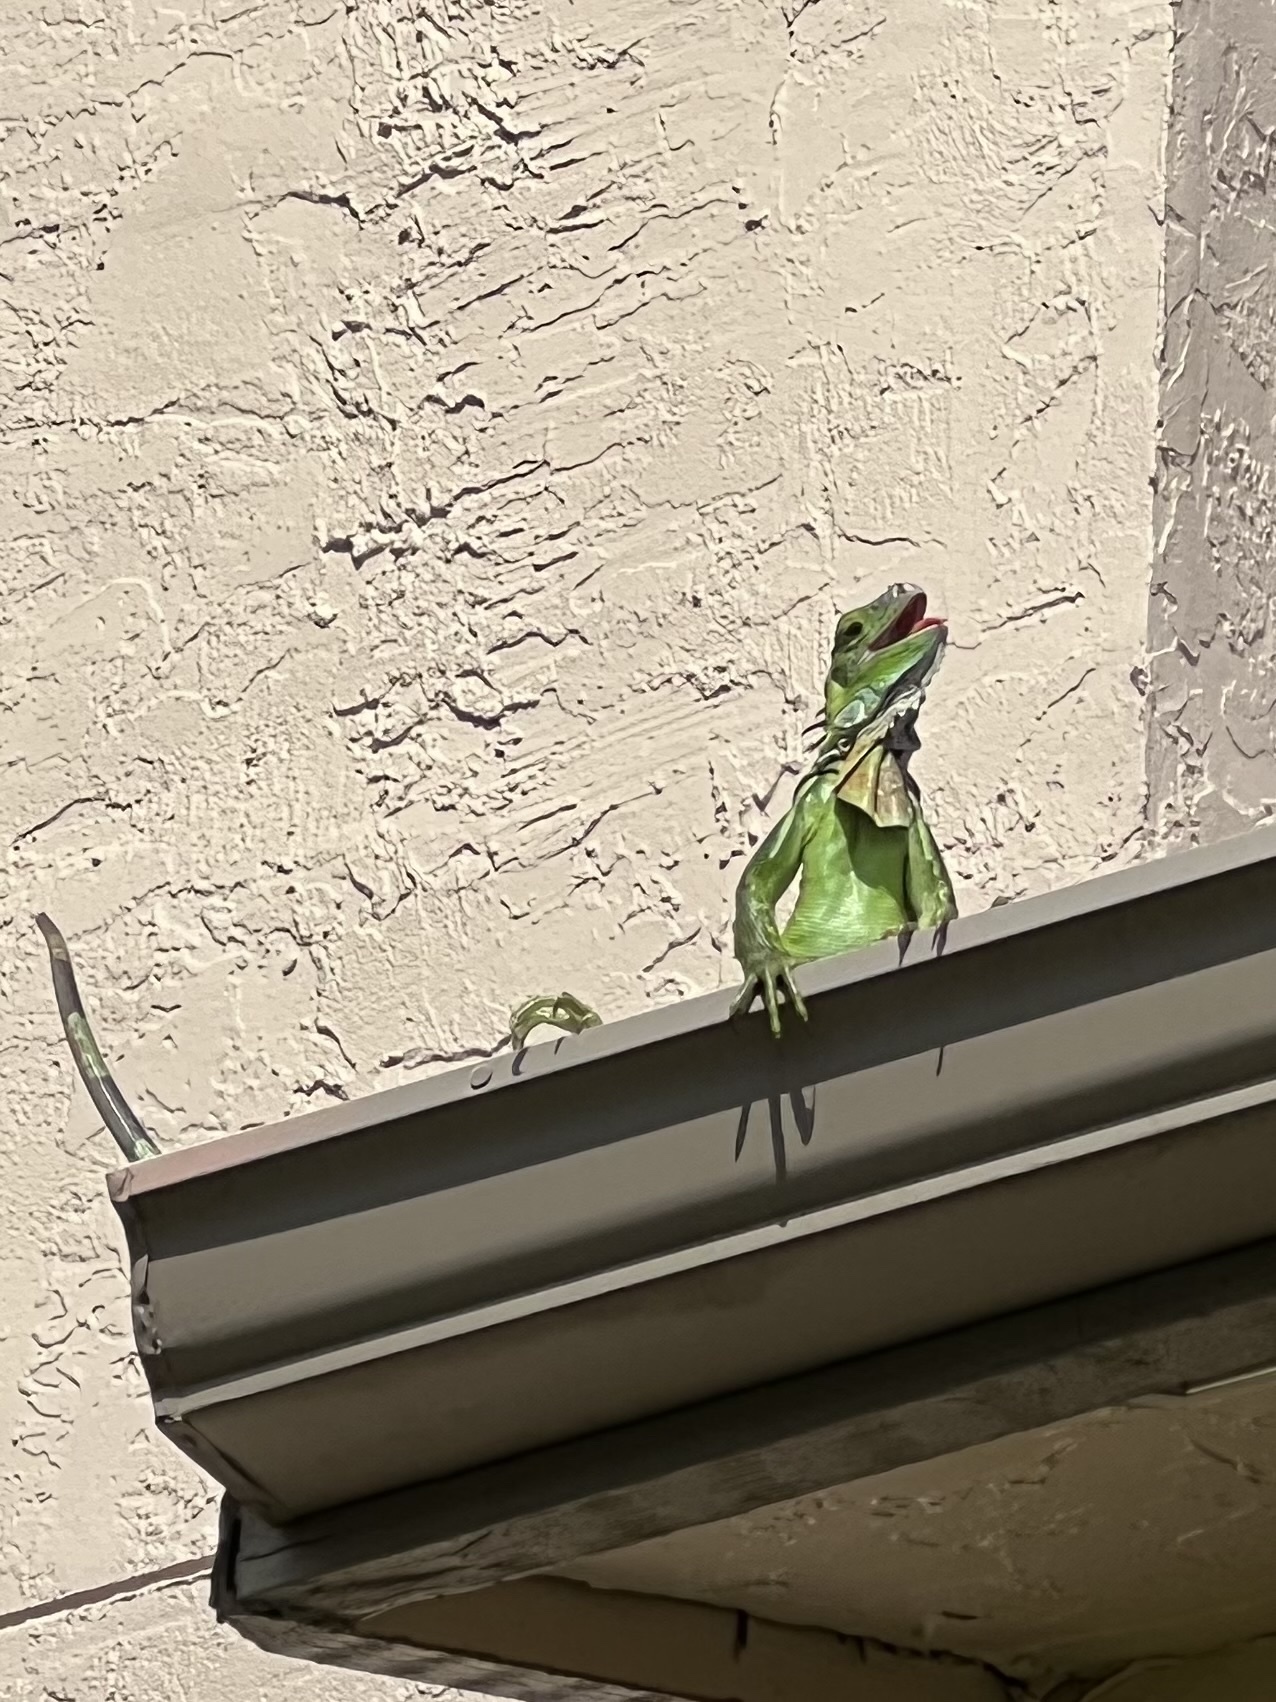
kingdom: Animalia
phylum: Chordata
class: Squamata
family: Iguanidae
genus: Iguana
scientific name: Iguana iguana
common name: Green iguana
